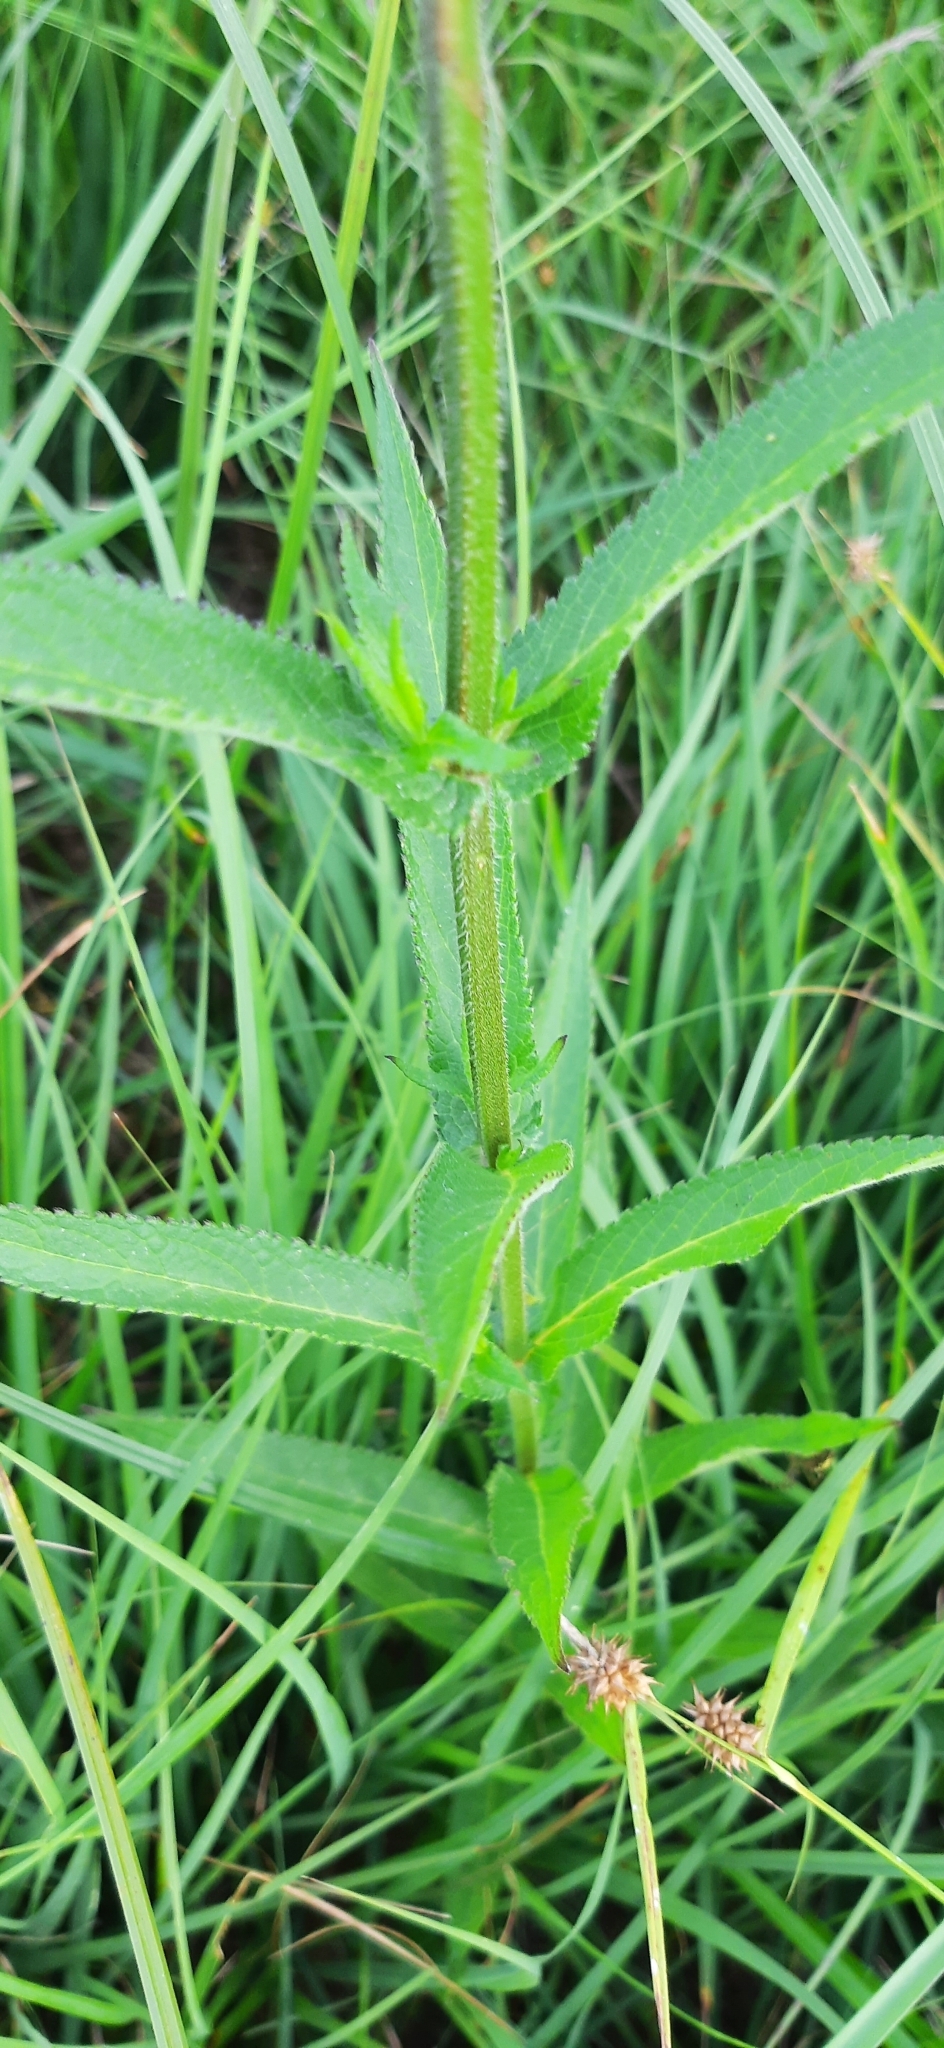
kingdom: Plantae
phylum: Tracheophyta
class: Magnoliopsida
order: Lamiales
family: Lamiaceae
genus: Stachys
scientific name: Stachys palustris
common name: Marsh woundwort
